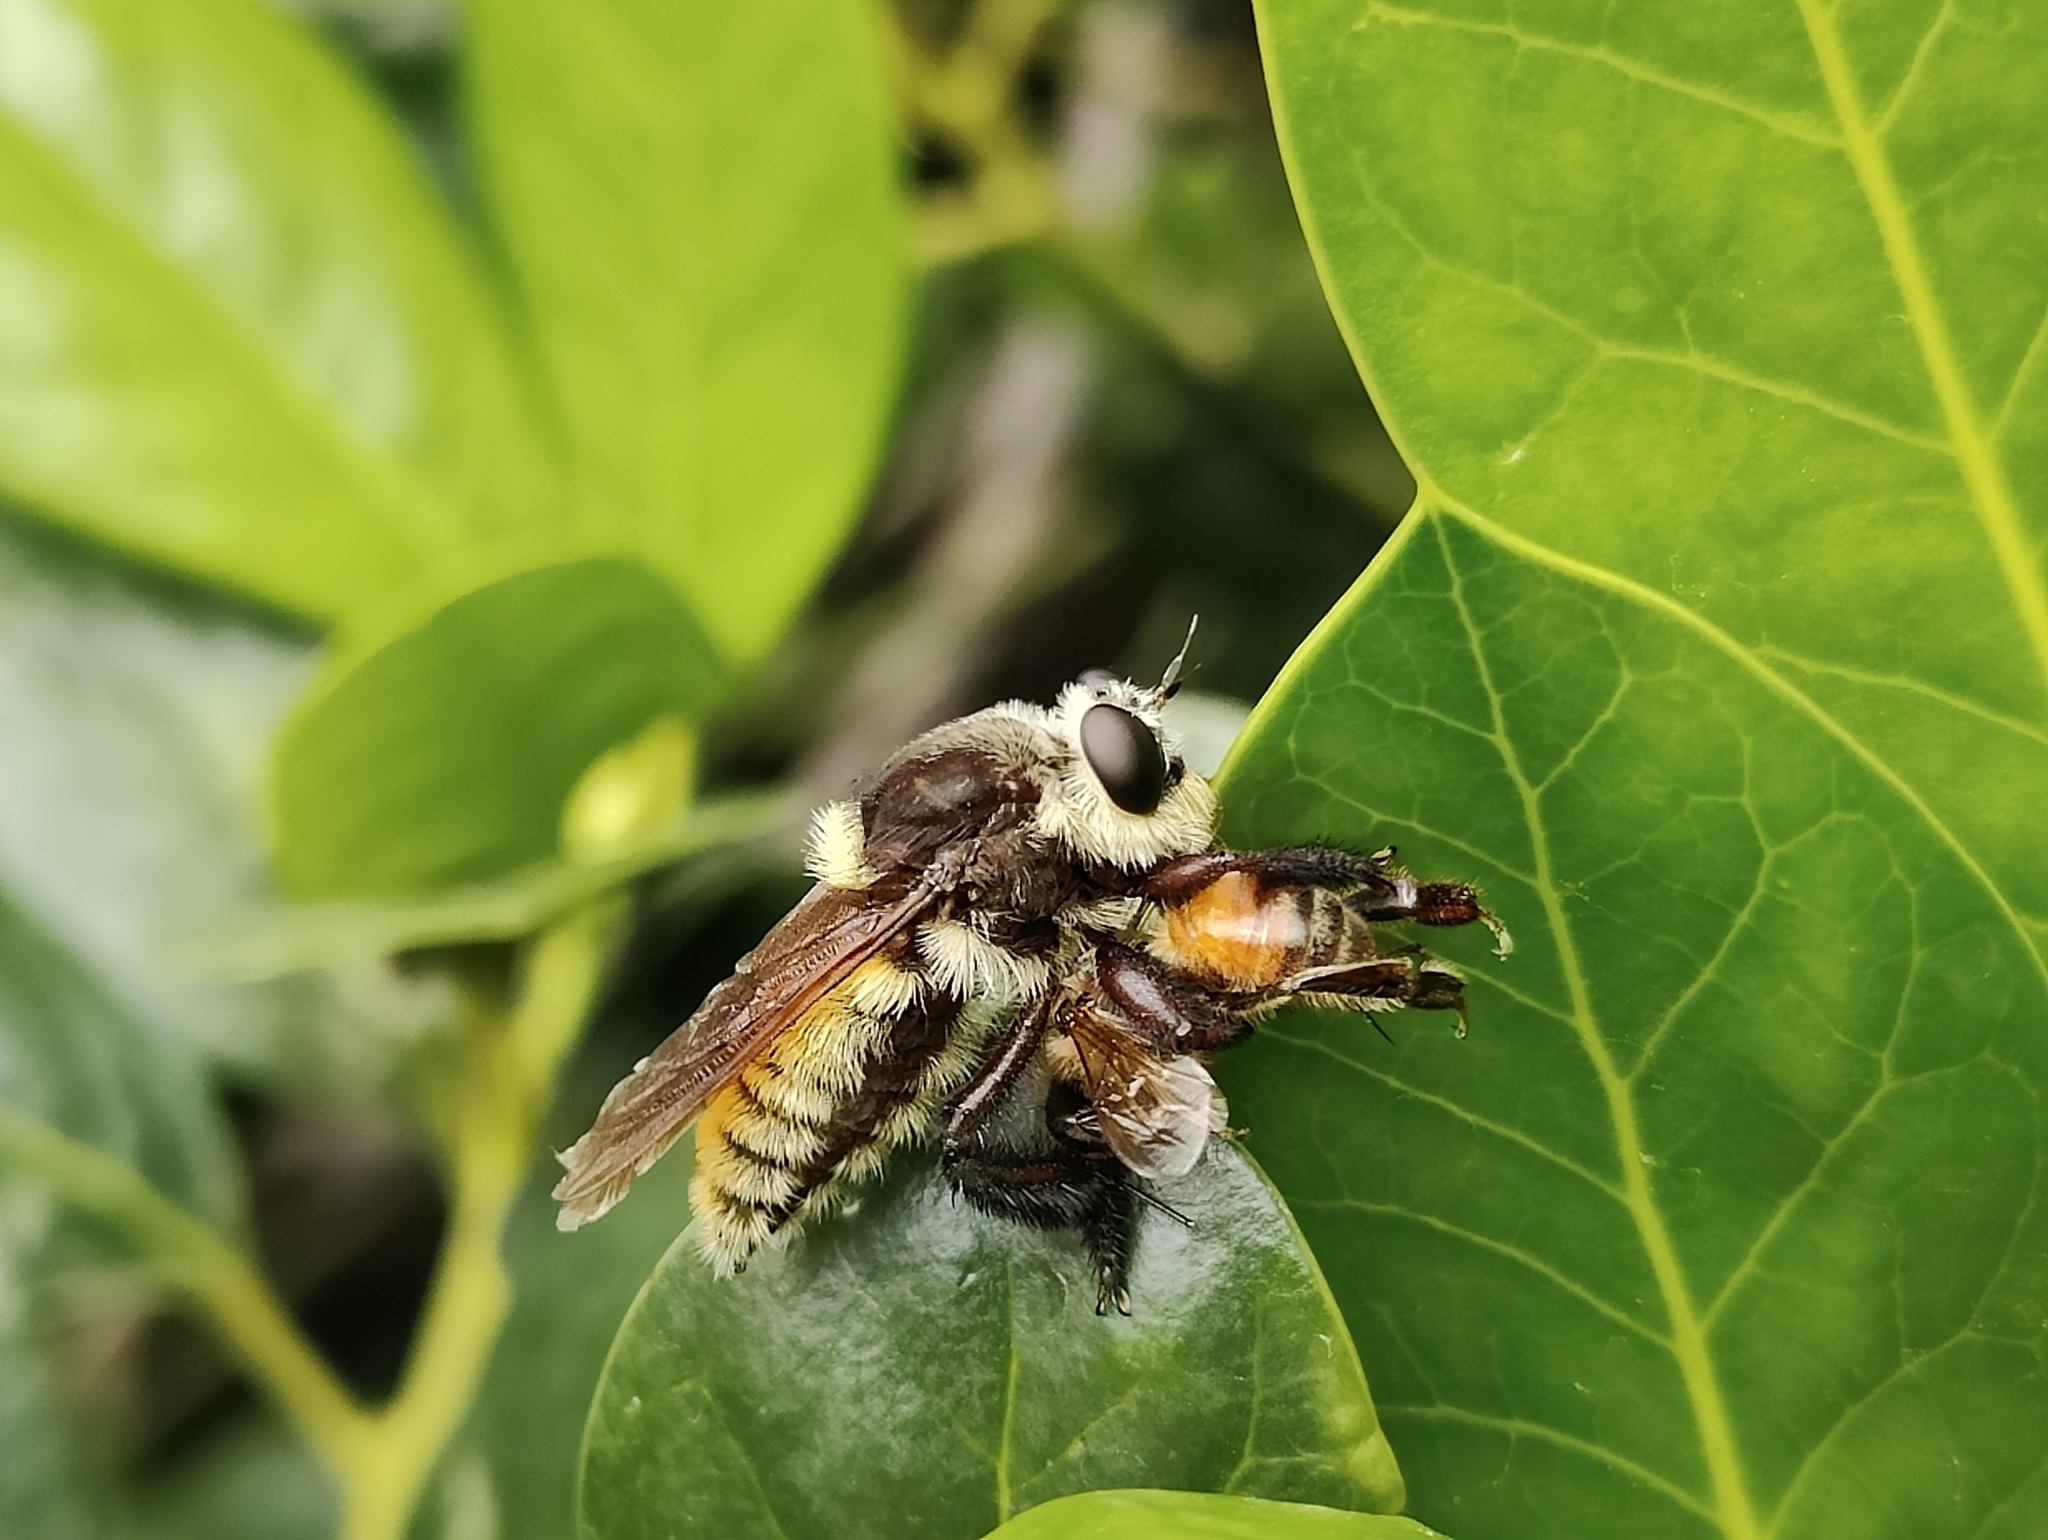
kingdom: Animalia
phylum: Arthropoda
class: Insecta
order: Diptera
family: Asilidae
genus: Mallophora
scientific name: Mallophora fautrix
